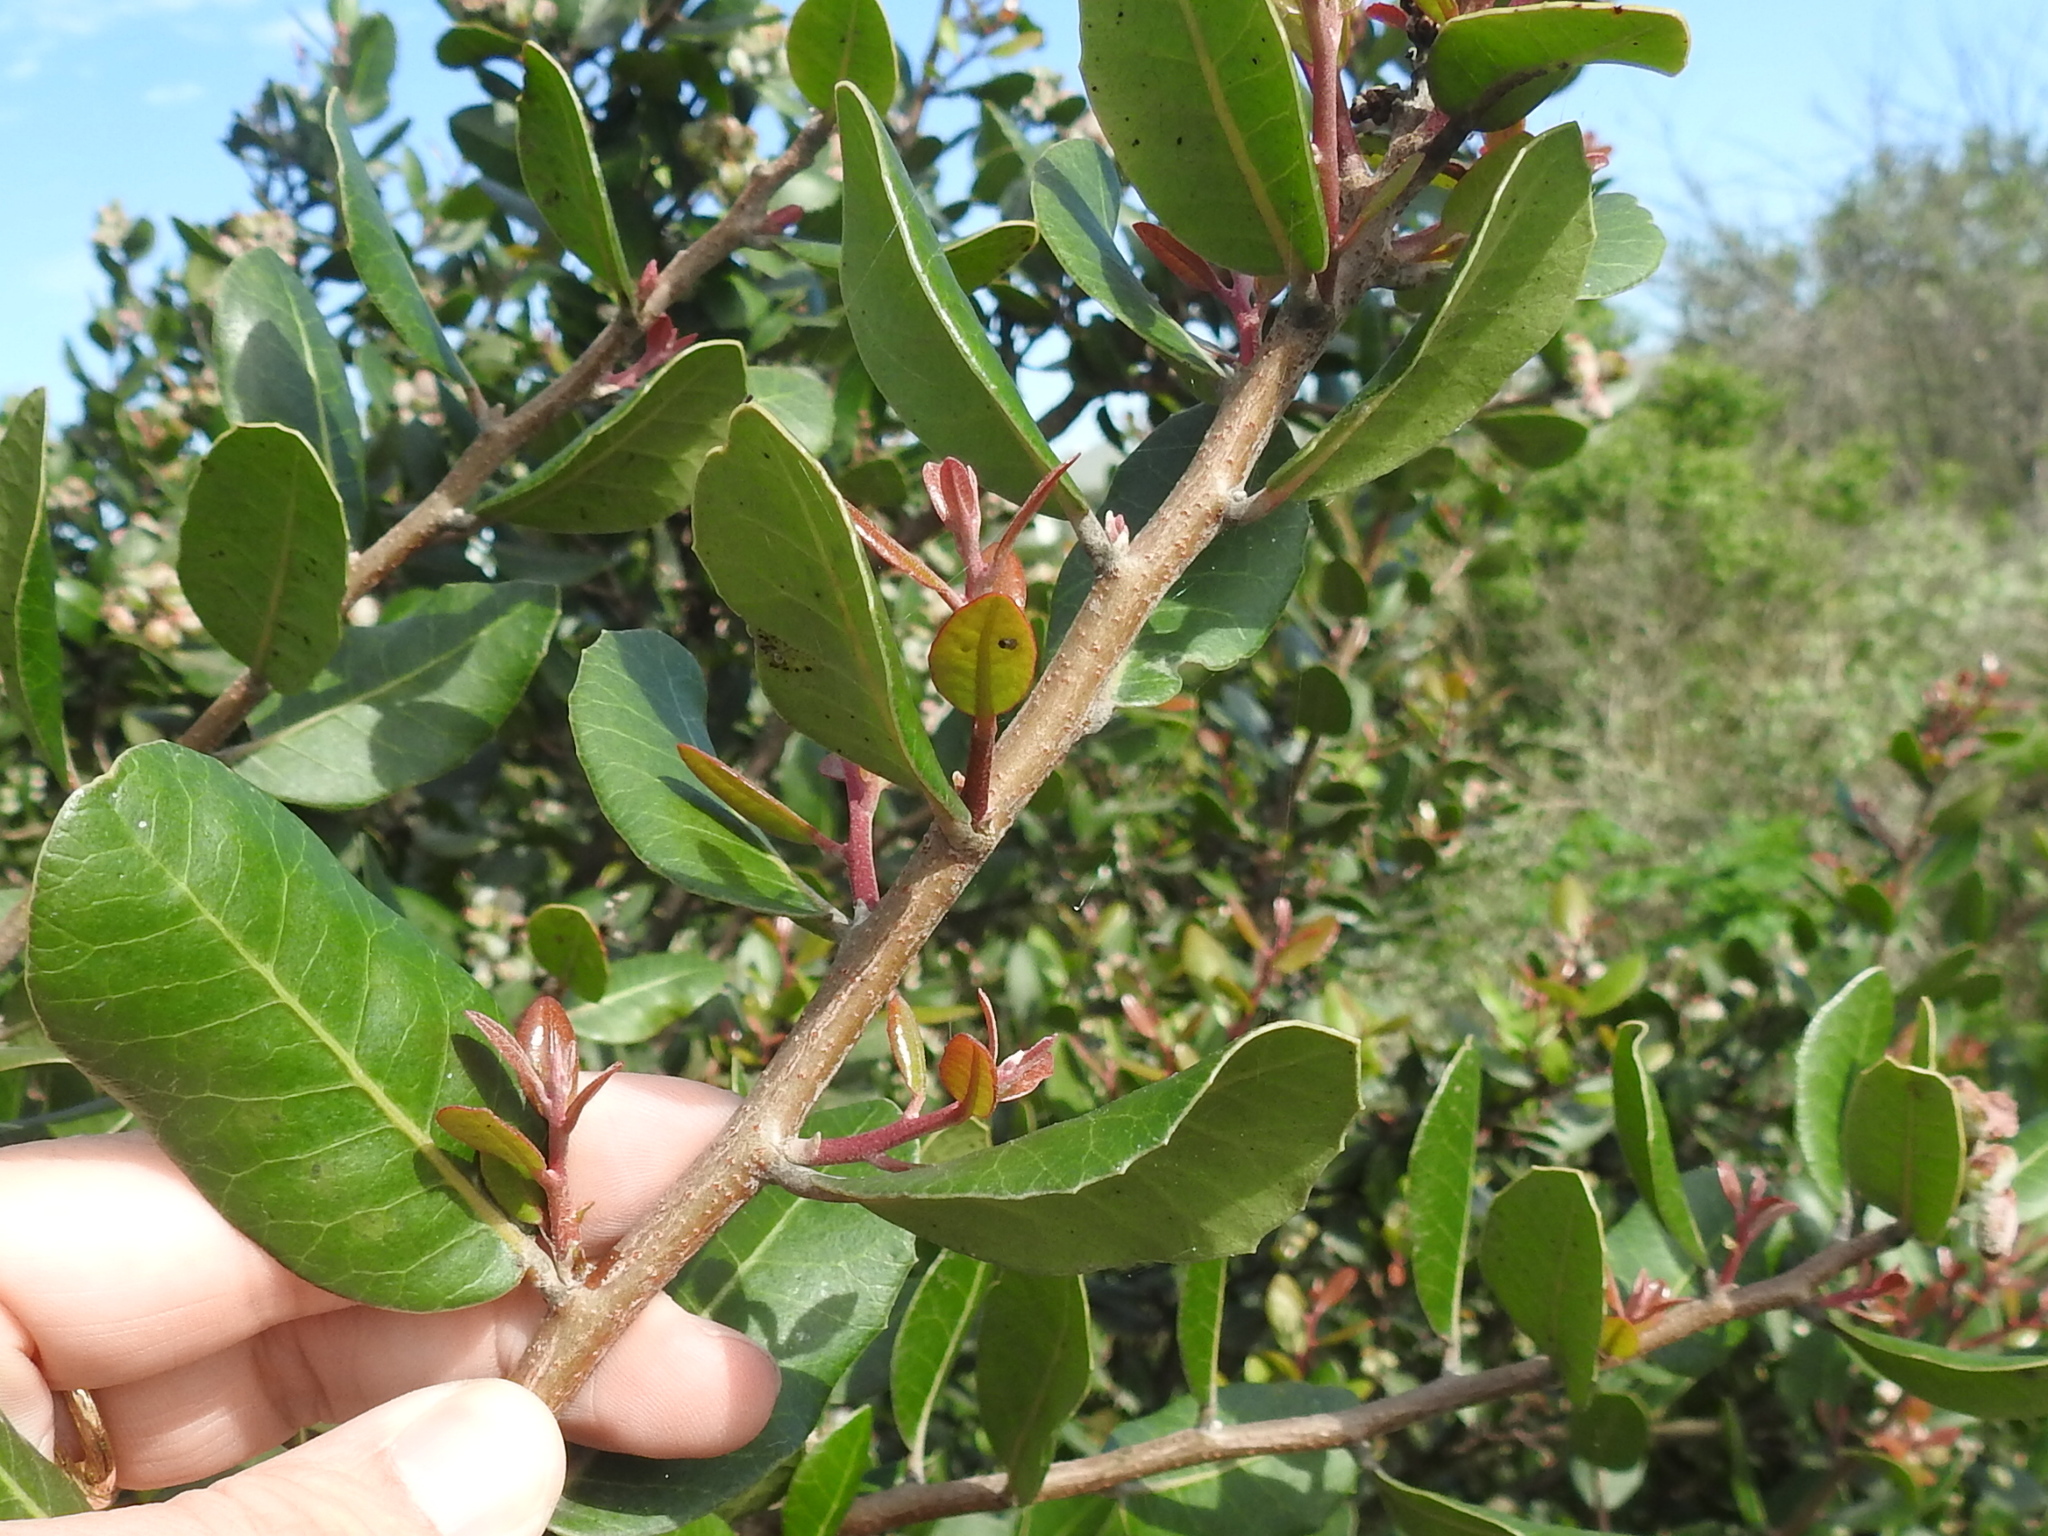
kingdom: Plantae
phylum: Tracheophyta
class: Magnoliopsida
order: Sapindales
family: Anacardiaceae
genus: Rhus
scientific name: Rhus integrifolia
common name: Lemonade sumac
